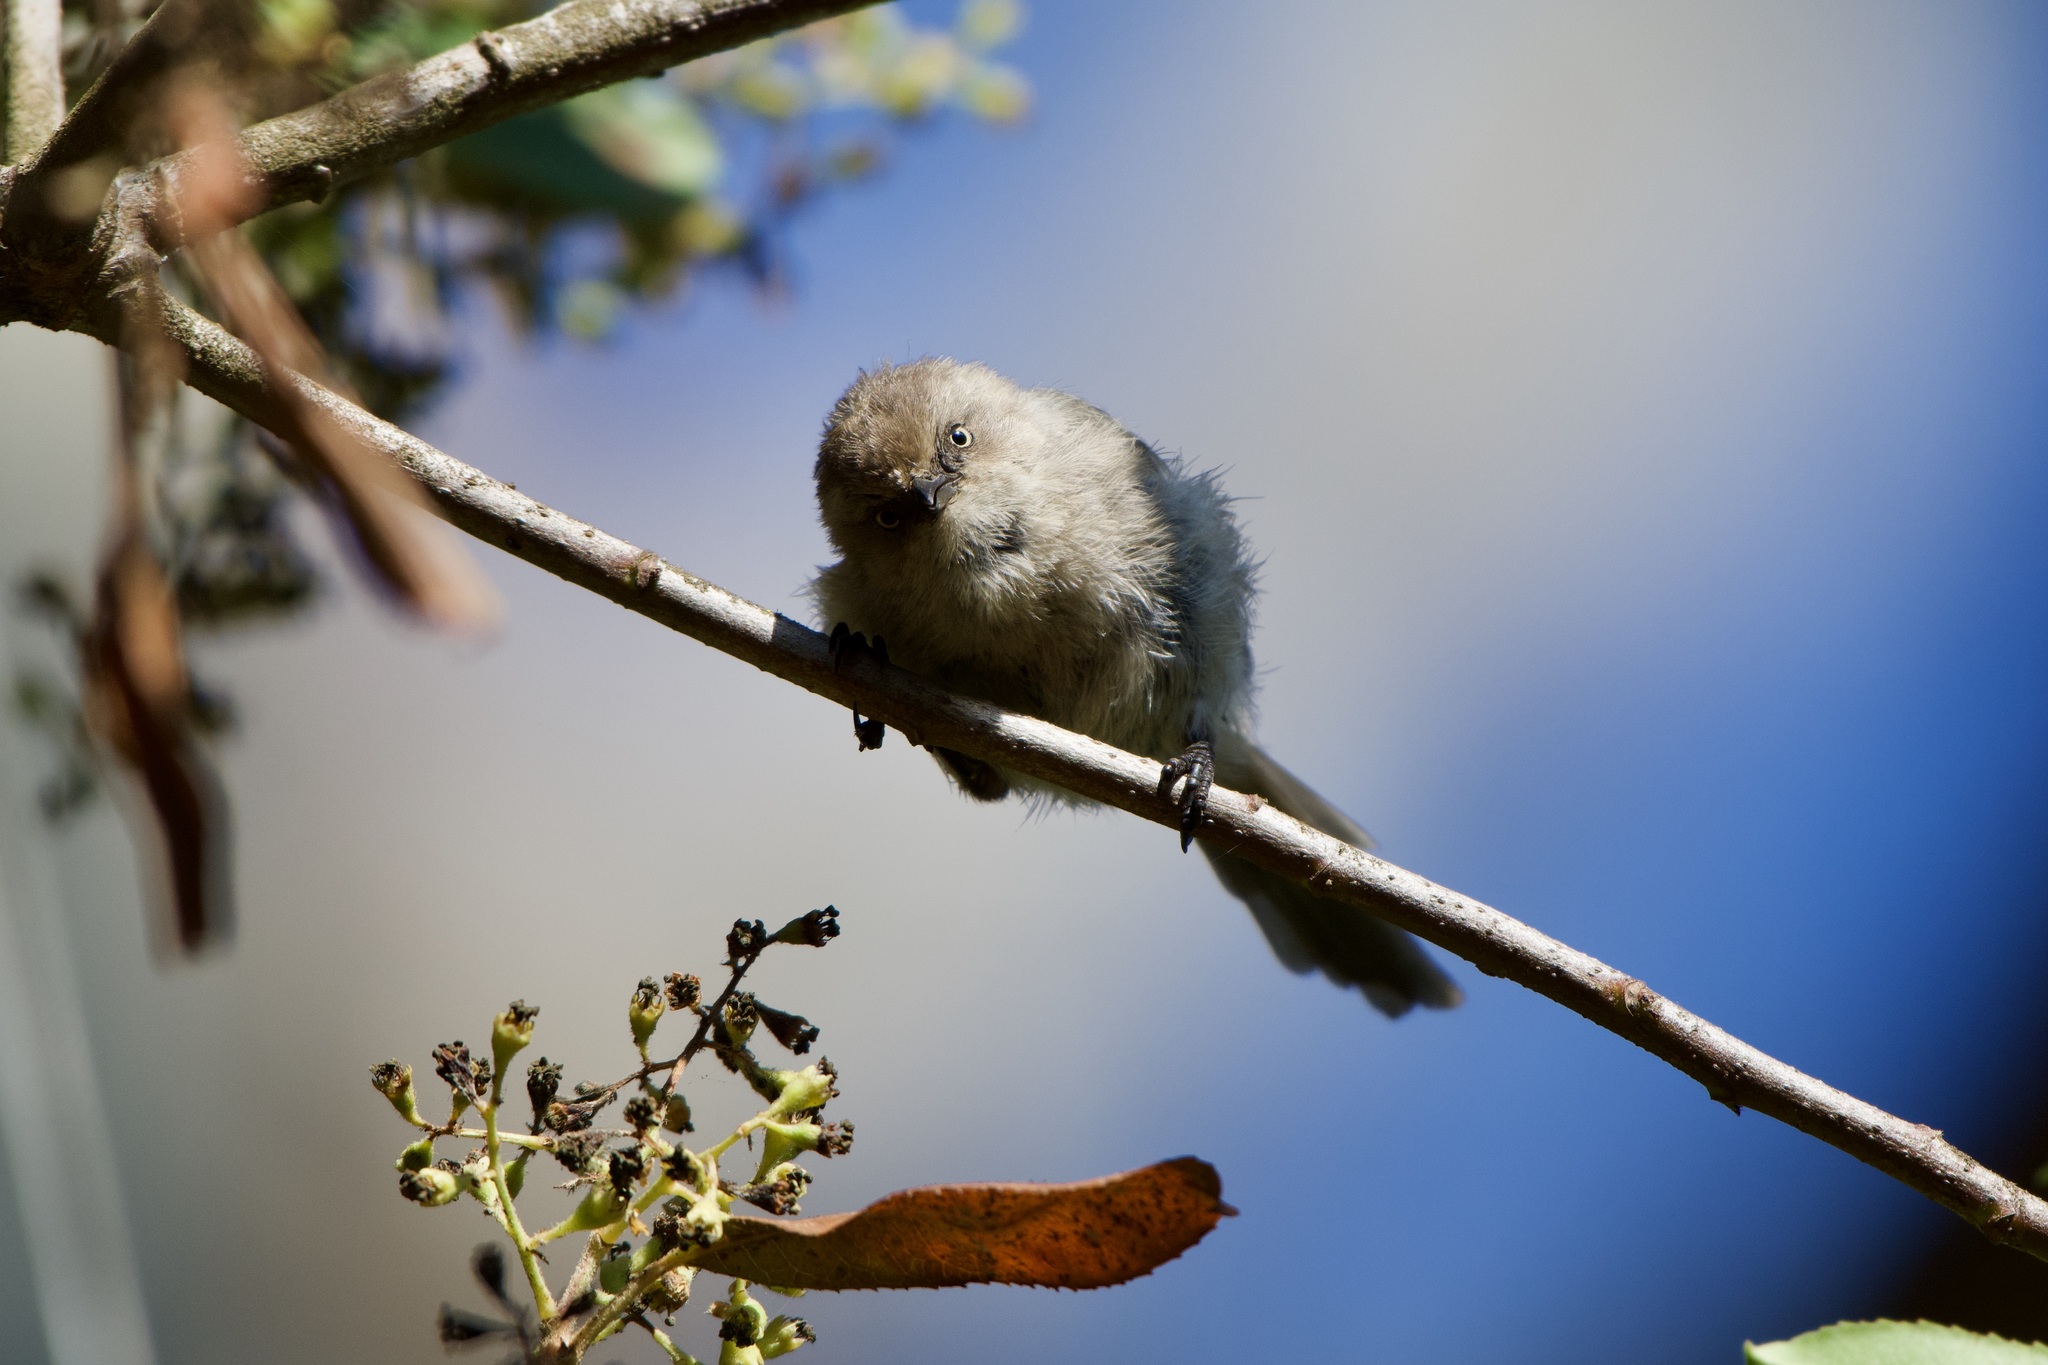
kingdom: Animalia
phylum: Chordata
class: Aves
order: Passeriformes
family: Aegithalidae
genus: Psaltriparus
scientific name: Psaltriparus minimus
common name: American bushtit
